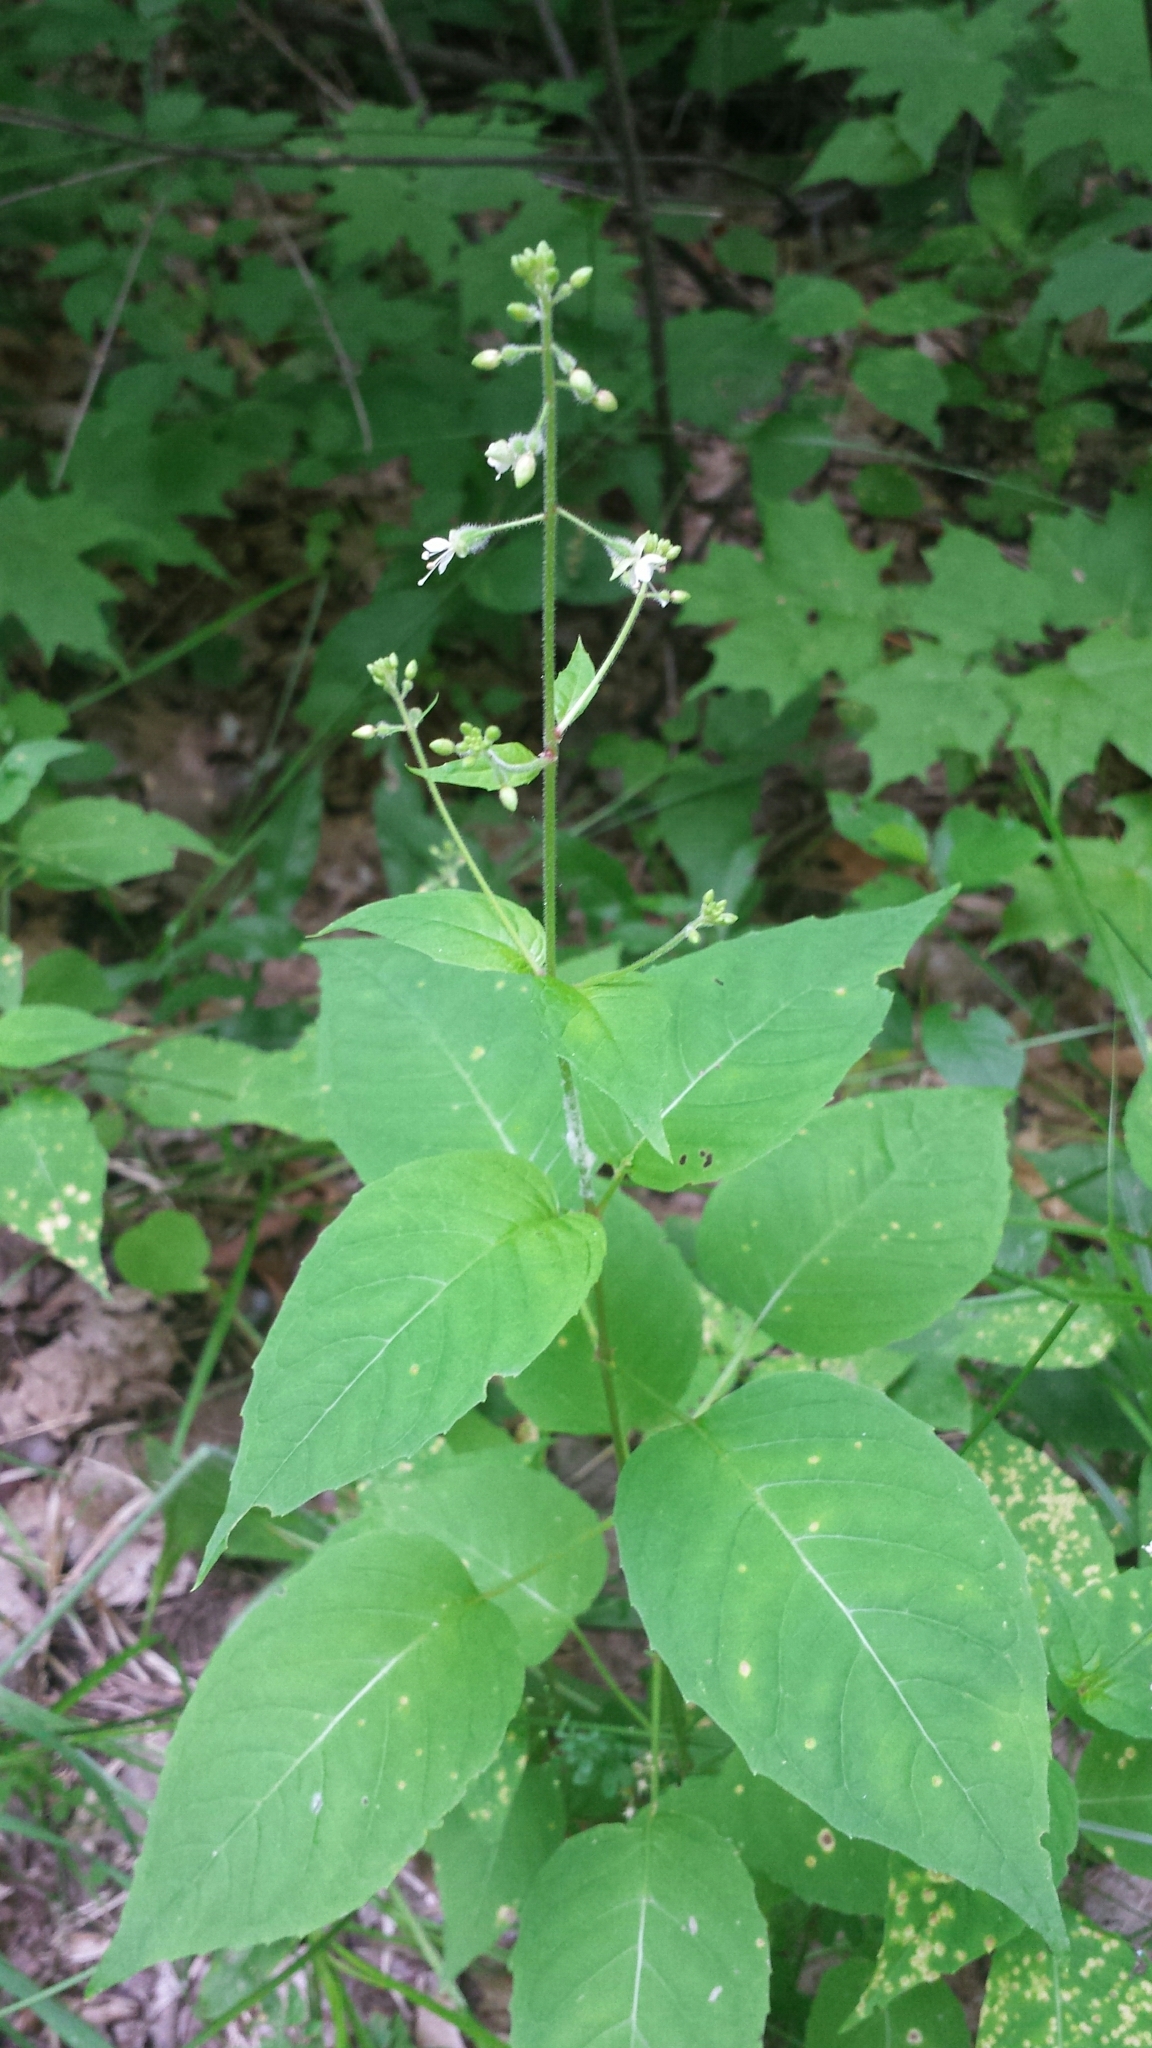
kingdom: Plantae
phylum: Tracheophyta
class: Magnoliopsida
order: Myrtales
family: Onagraceae
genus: Circaea
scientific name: Circaea canadensis
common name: Broad-leaved enchanter's nightshade
